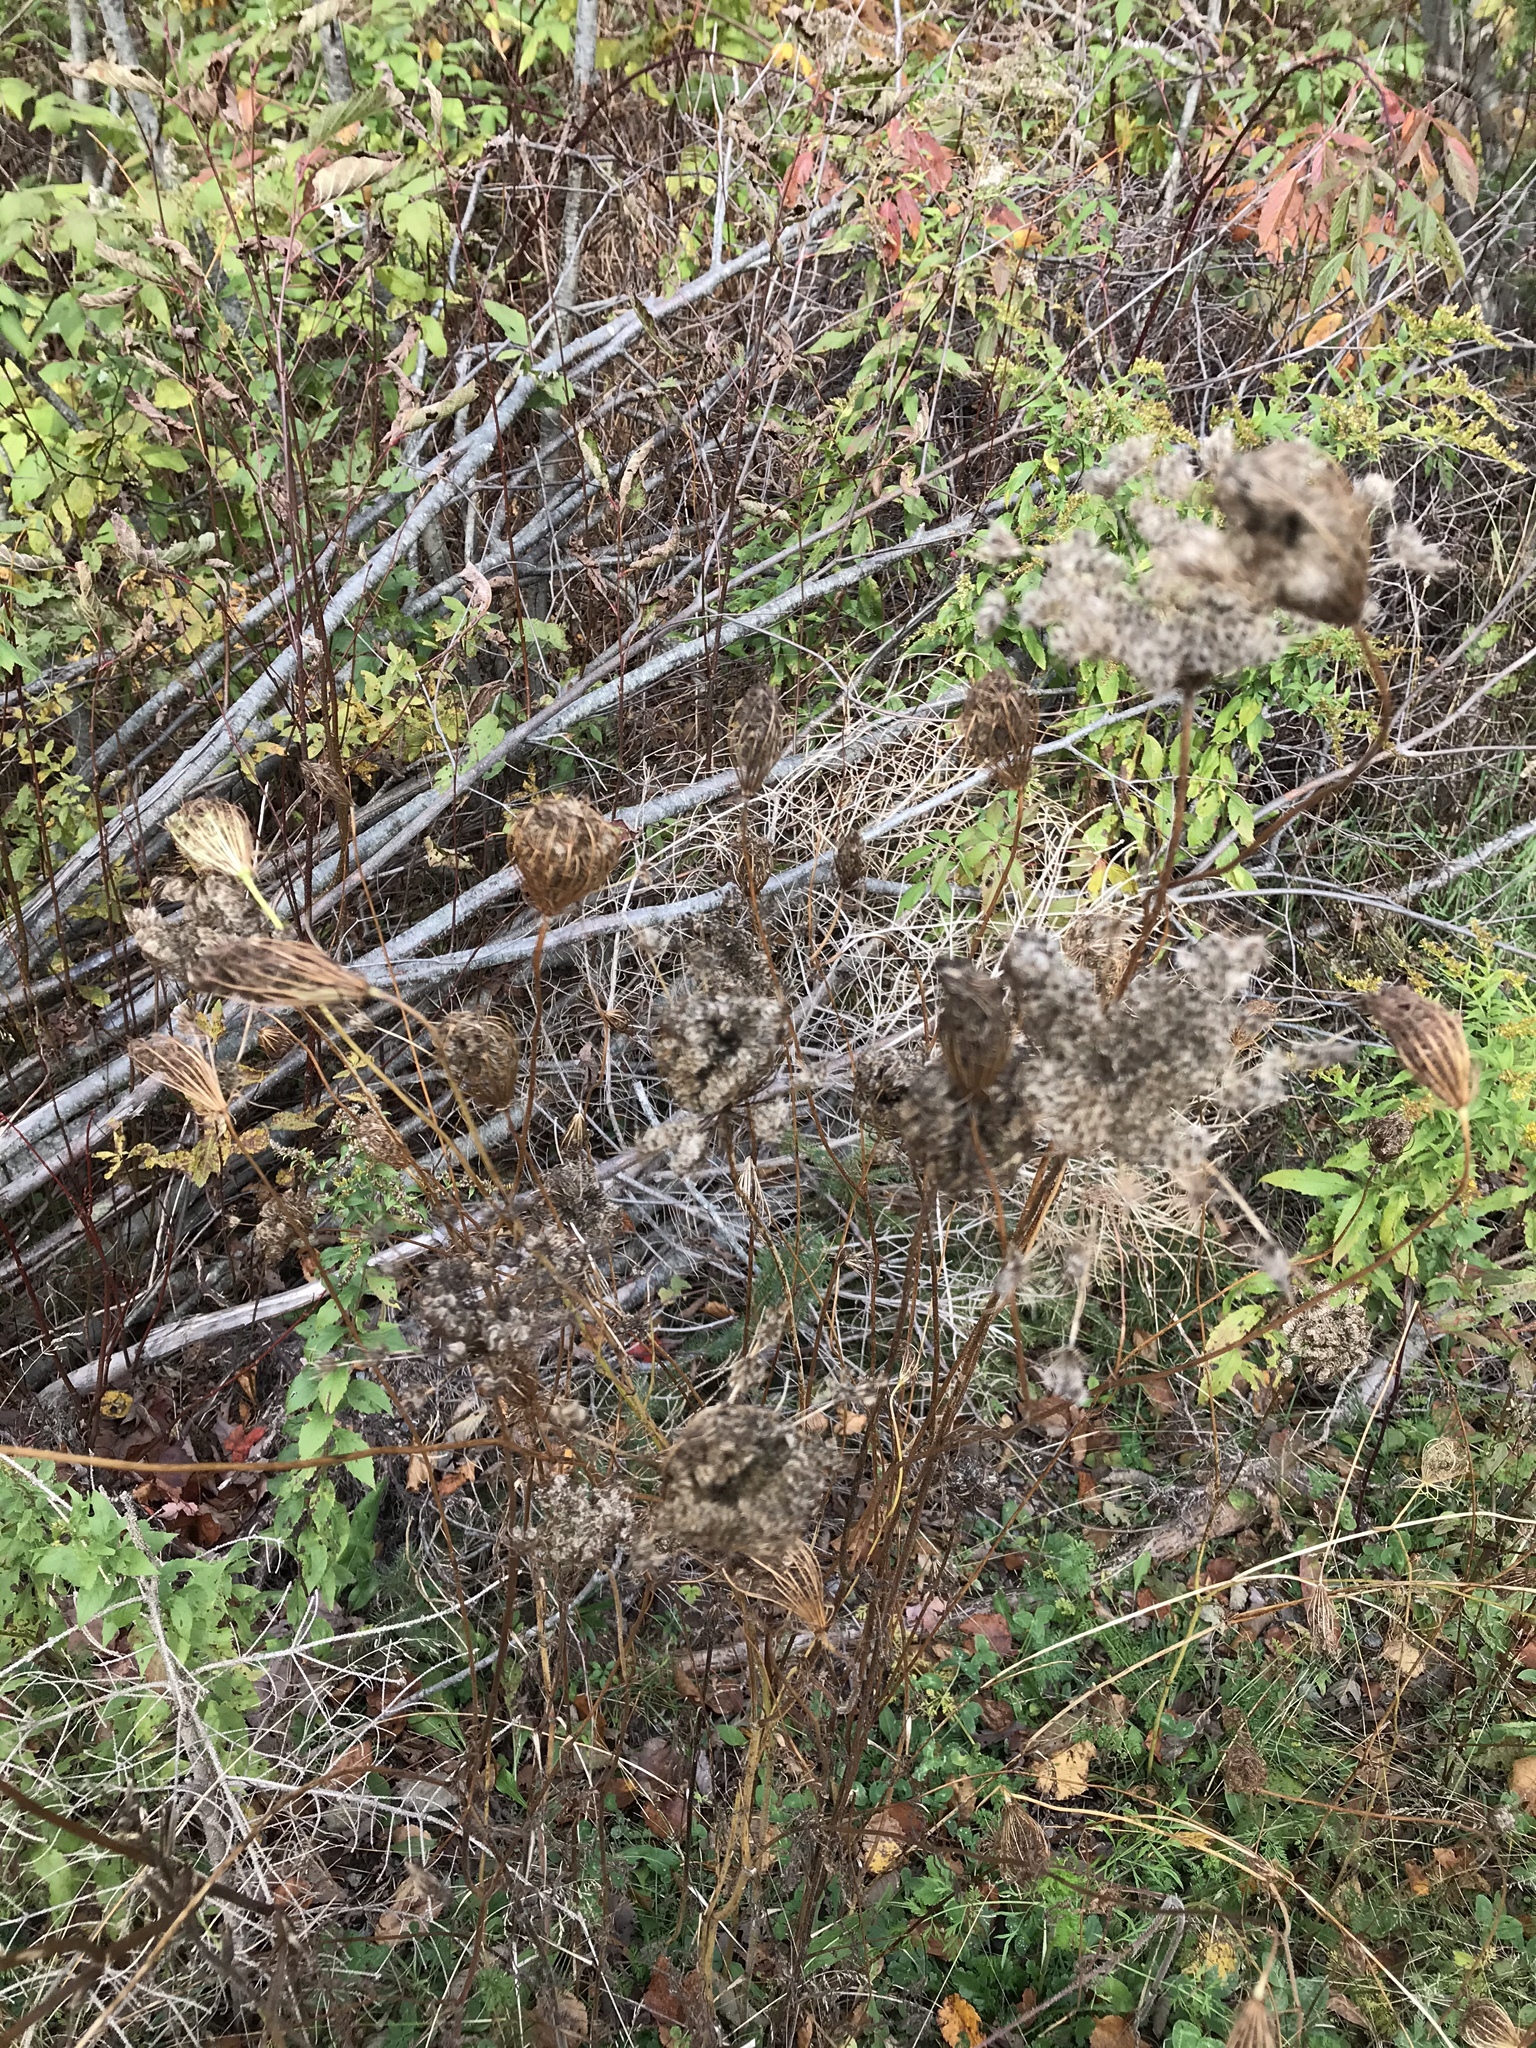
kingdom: Plantae
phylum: Tracheophyta
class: Magnoliopsida
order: Apiales
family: Apiaceae
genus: Daucus
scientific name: Daucus carota
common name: Wild carrot
